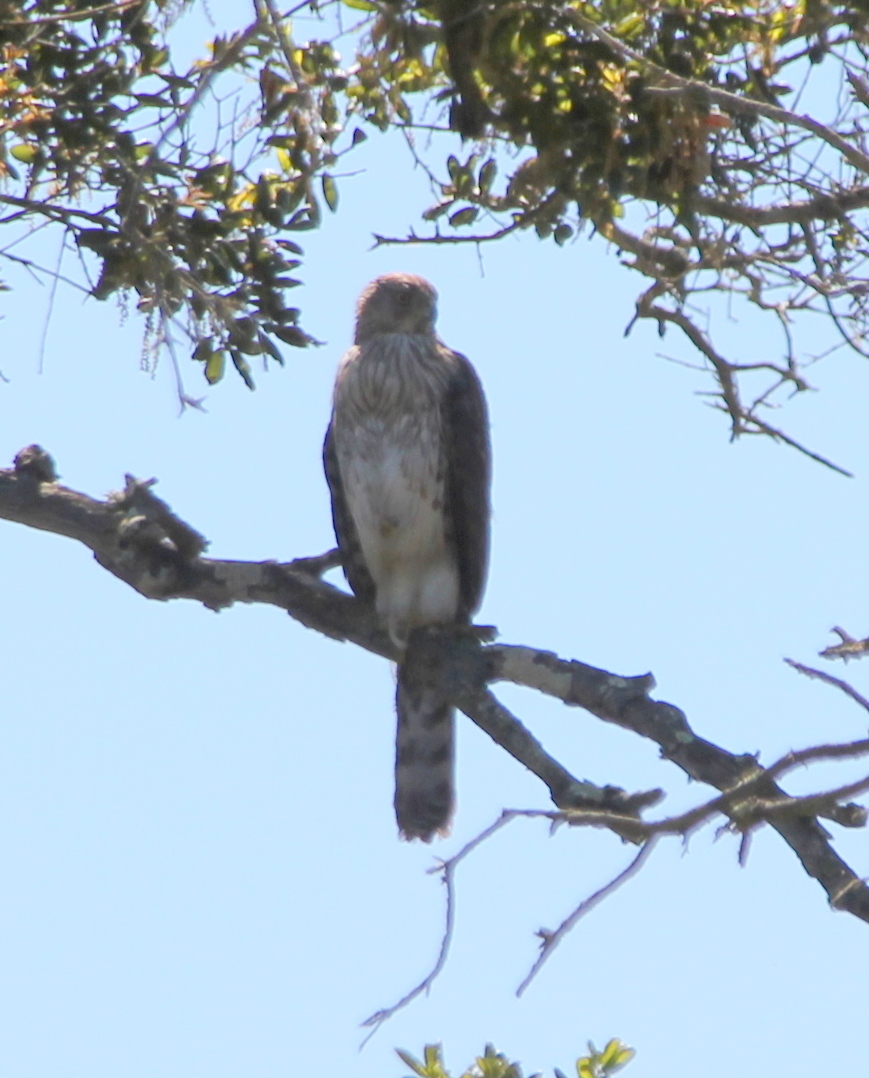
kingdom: Animalia
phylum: Chordata
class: Aves
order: Accipitriformes
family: Accipitridae
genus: Accipiter
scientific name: Accipiter cooperii
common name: Cooper's hawk
